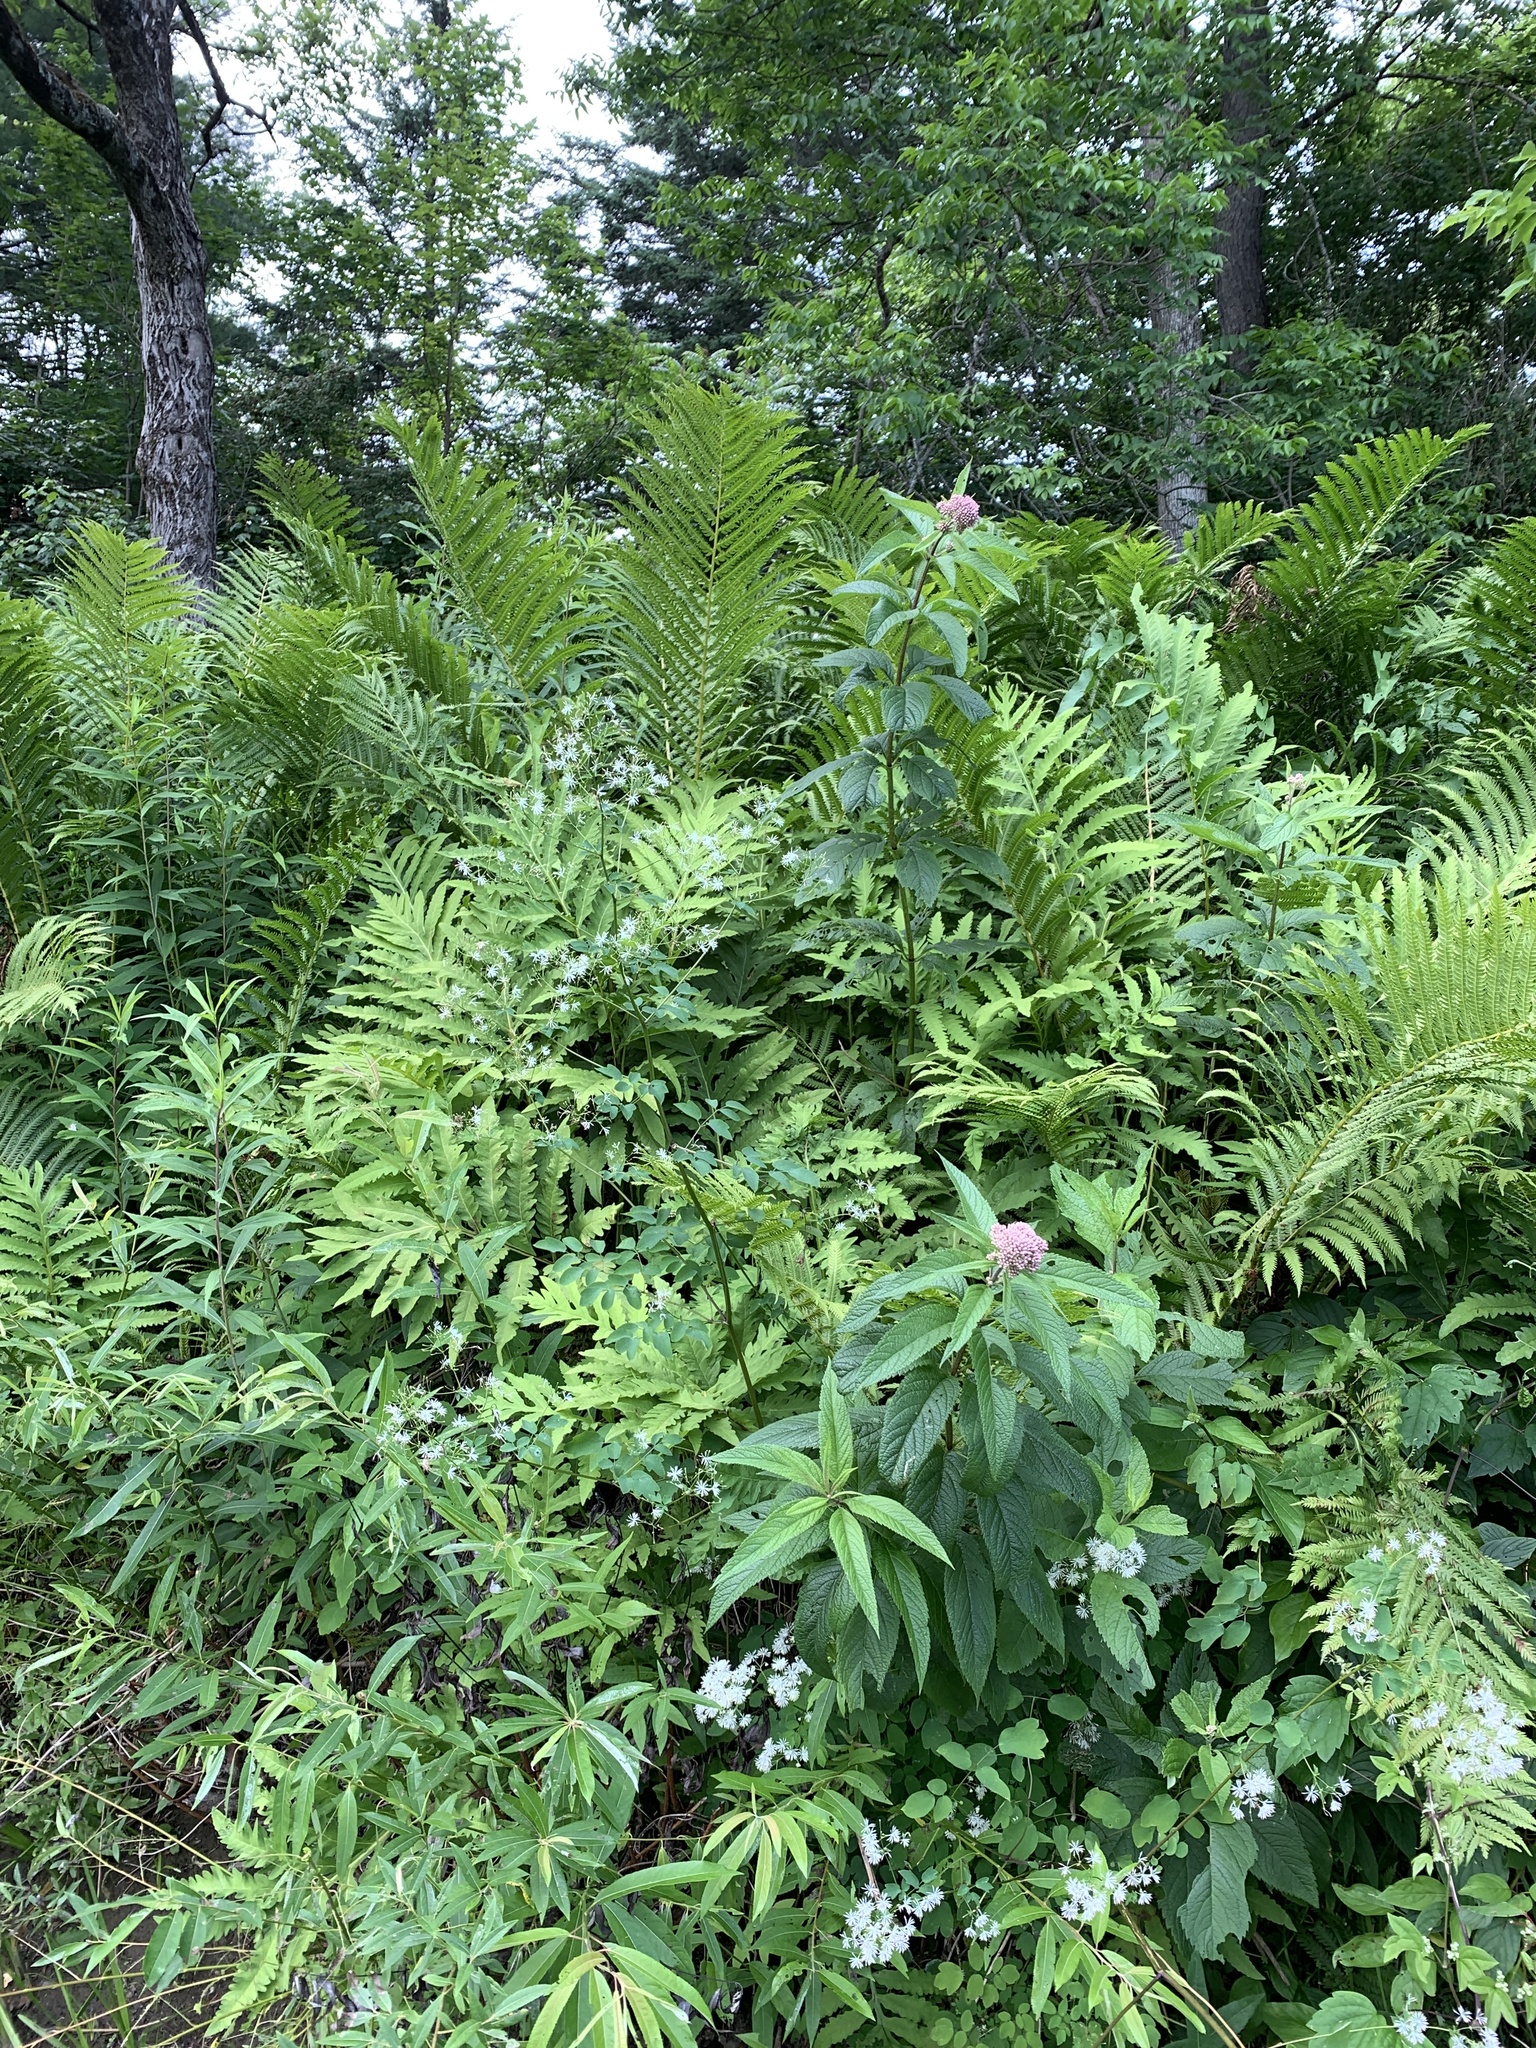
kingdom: Plantae
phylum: Tracheophyta
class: Magnoliopsida
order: Ranunculales
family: Ranunculaceae
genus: Thalictrum
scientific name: Thalictrum pubescens
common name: King-of-the-meadow
